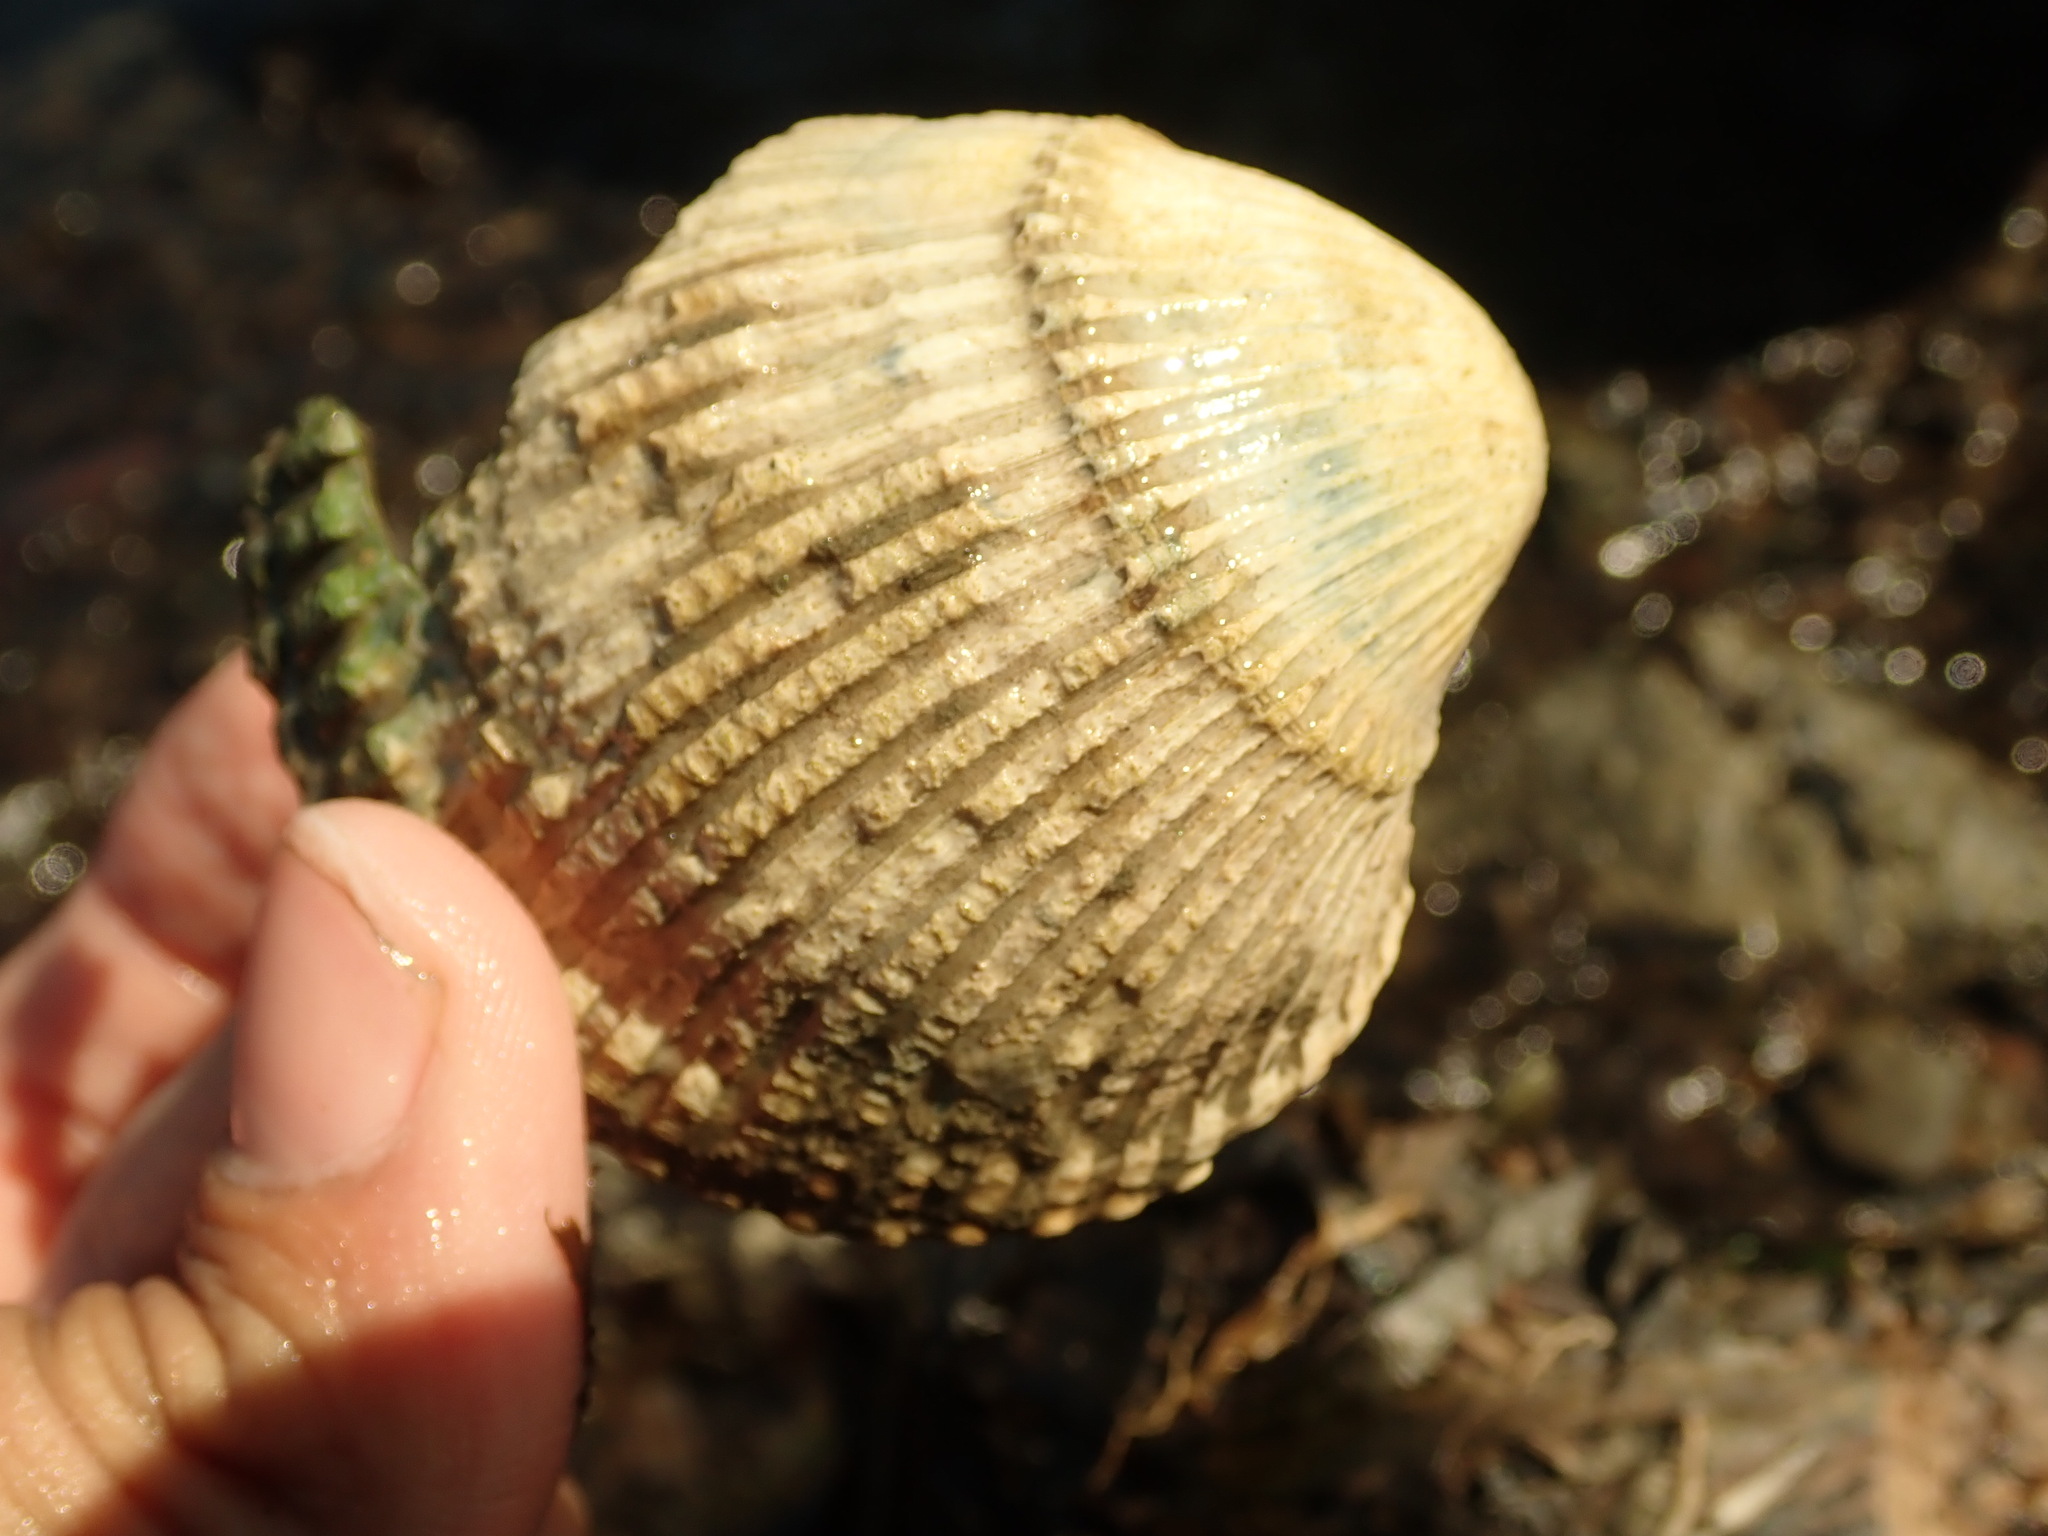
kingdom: Animalia
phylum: Mollusca
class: Bivalvia
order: Cardiida
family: Cardiidae
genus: Clinocardium
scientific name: Clinocardium nuttallii
